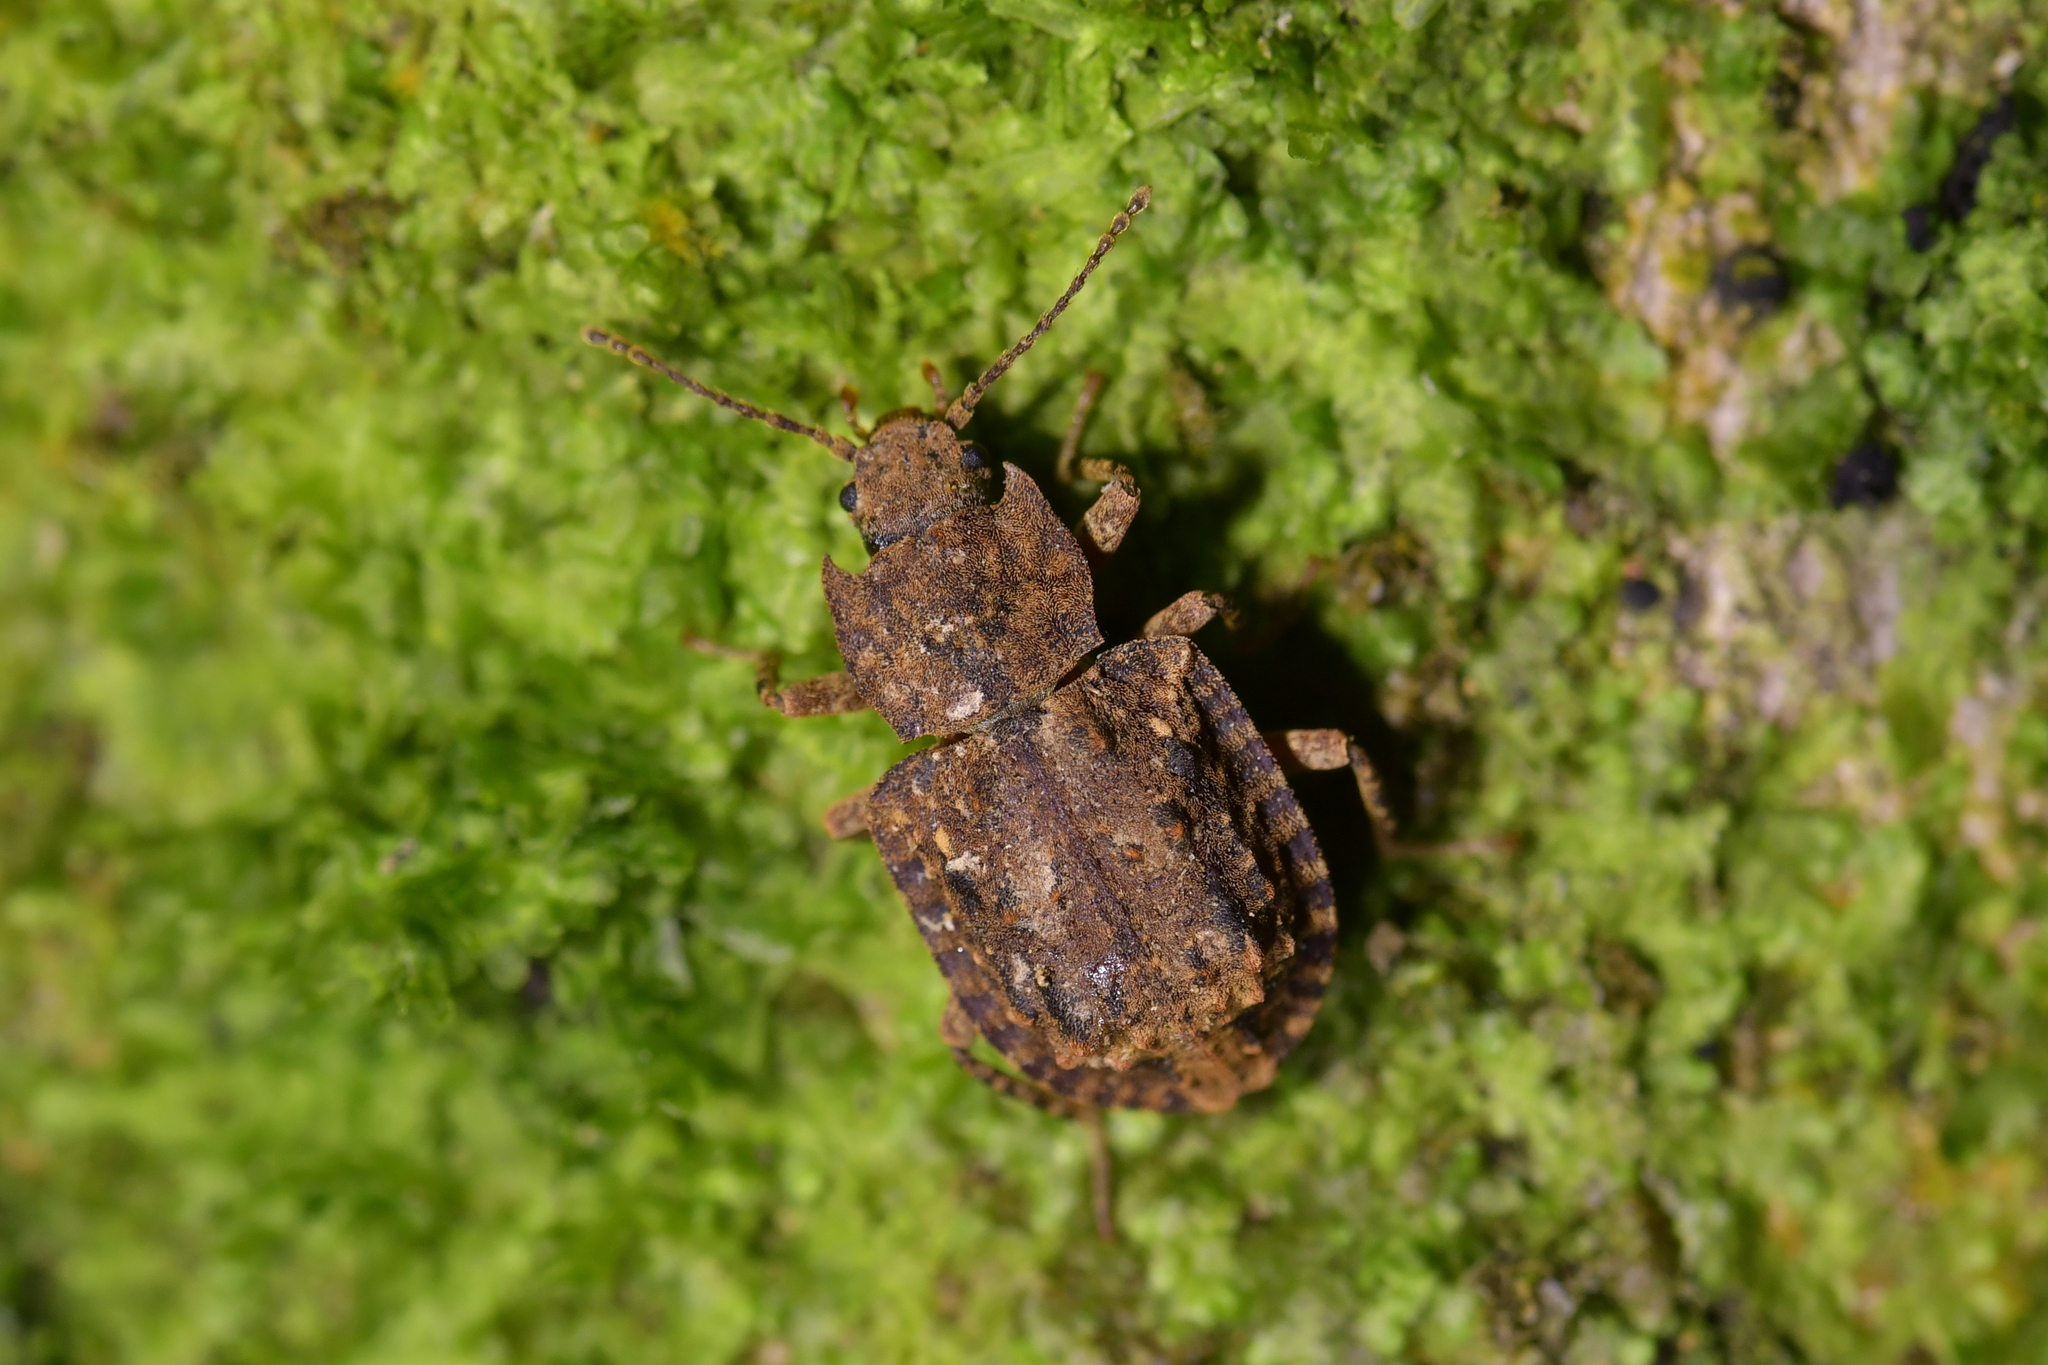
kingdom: Animalia
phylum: Arthropoda
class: Insecta
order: Coleoptera
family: Ulodidae
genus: Syrphetodes
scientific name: Syrphetodes marginatus
